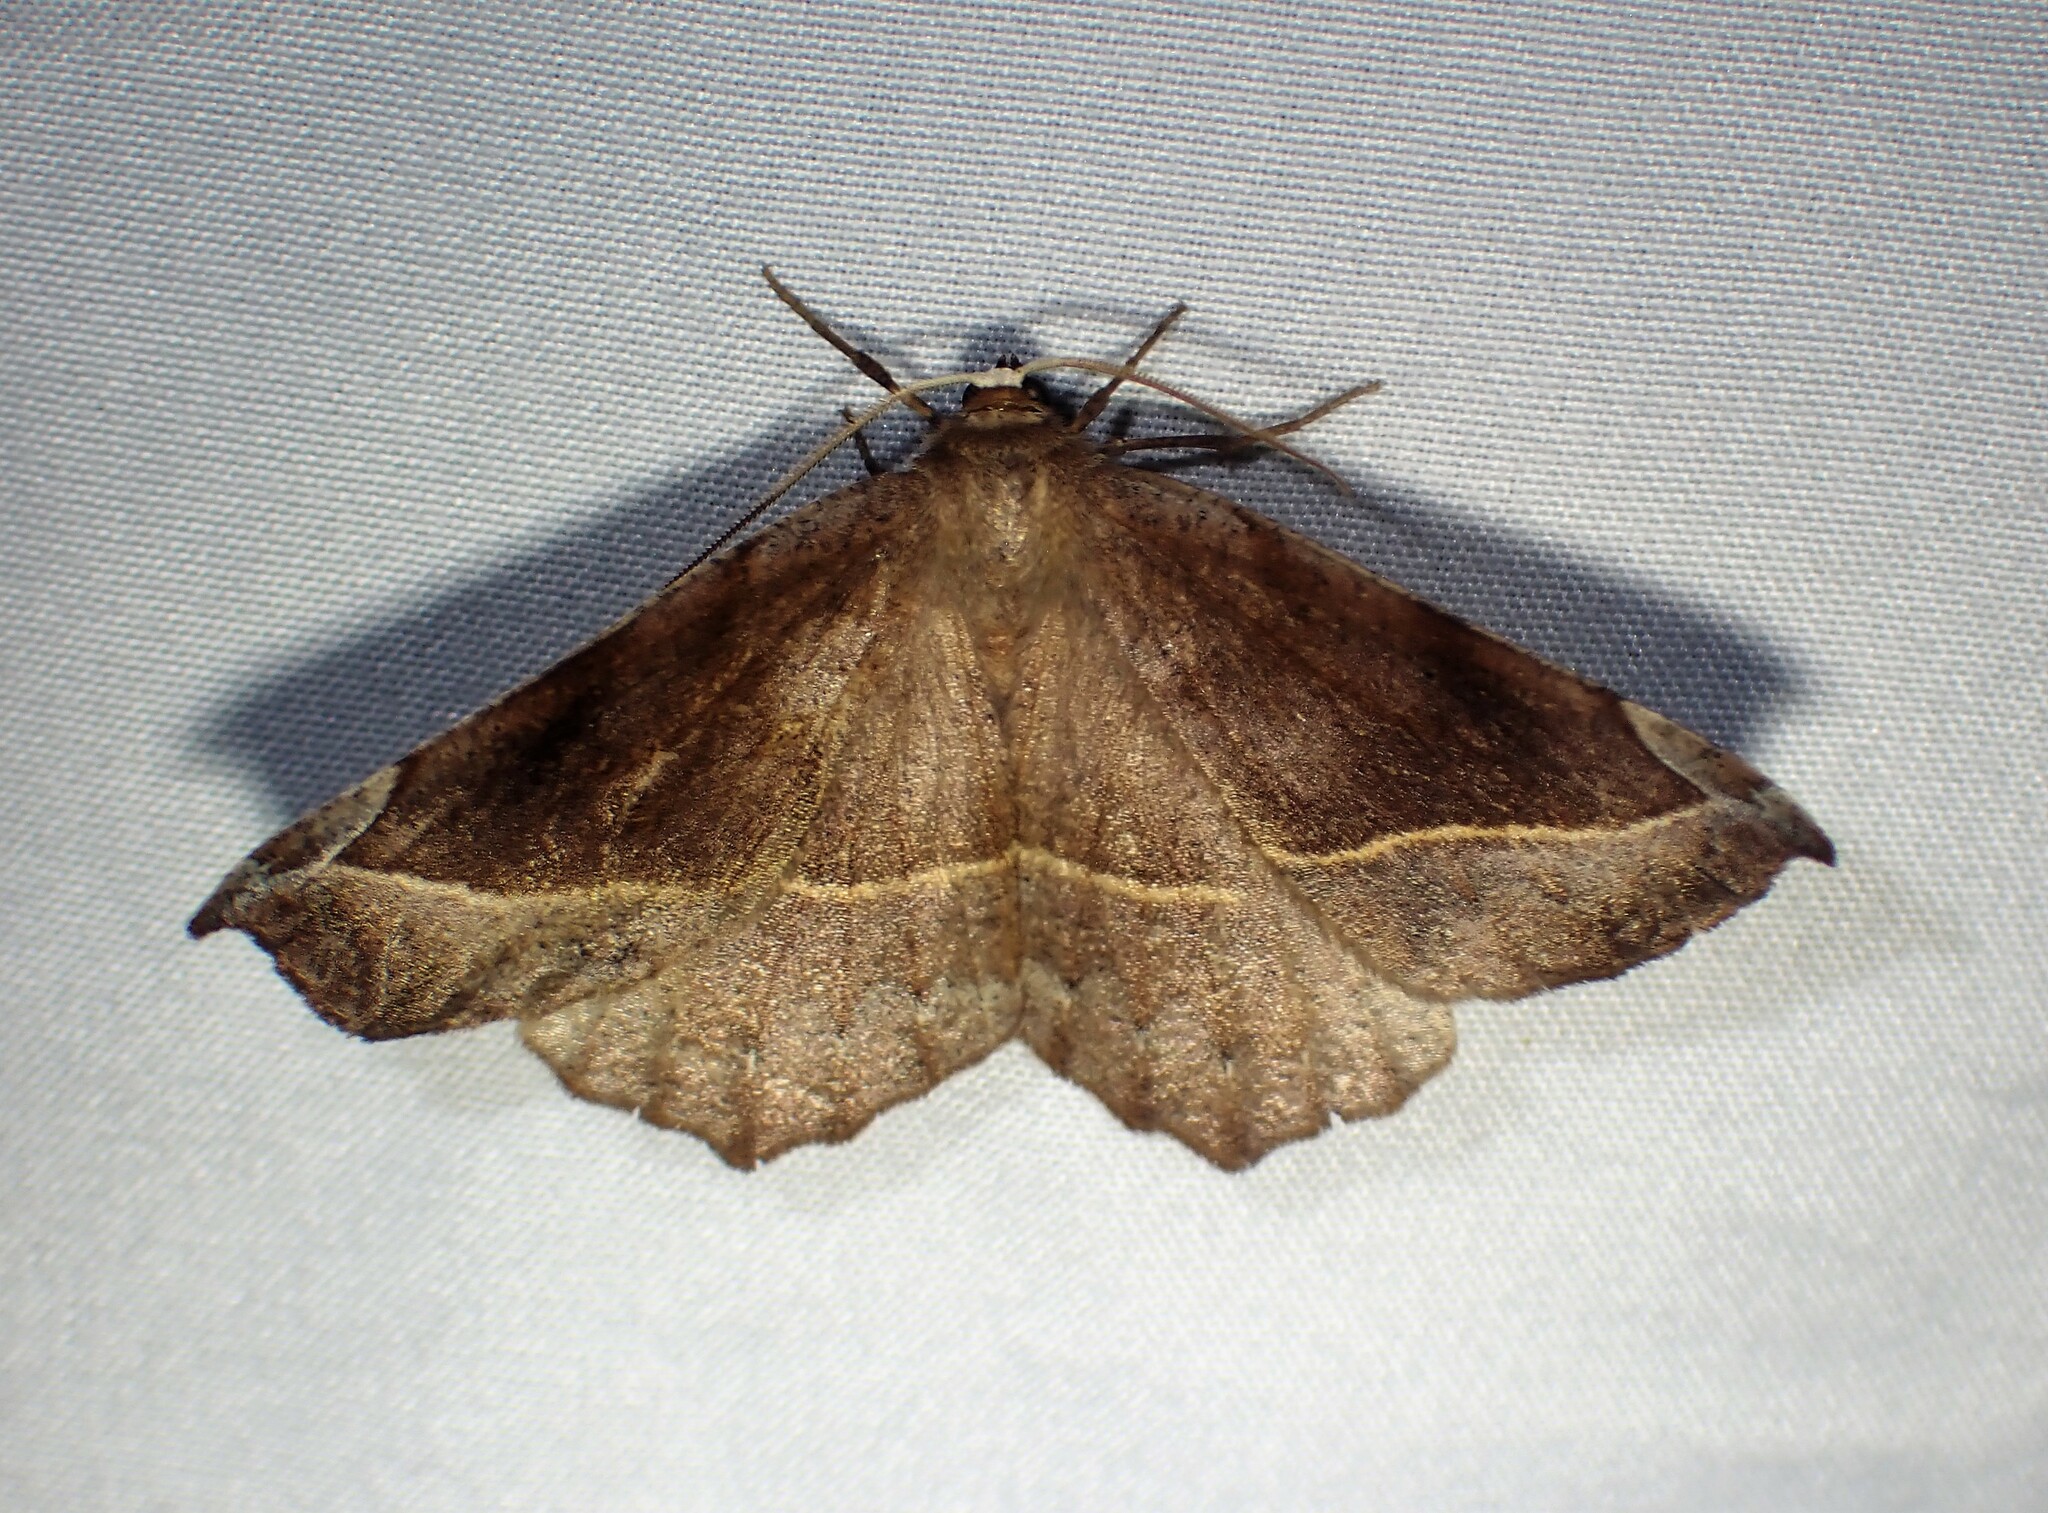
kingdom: Animalia
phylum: Arthropoda
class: Insecta
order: Lepidoptera
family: Geometridae
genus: Eutrapela
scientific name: Eutrapela clemataria
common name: Curved-toothed geometer
